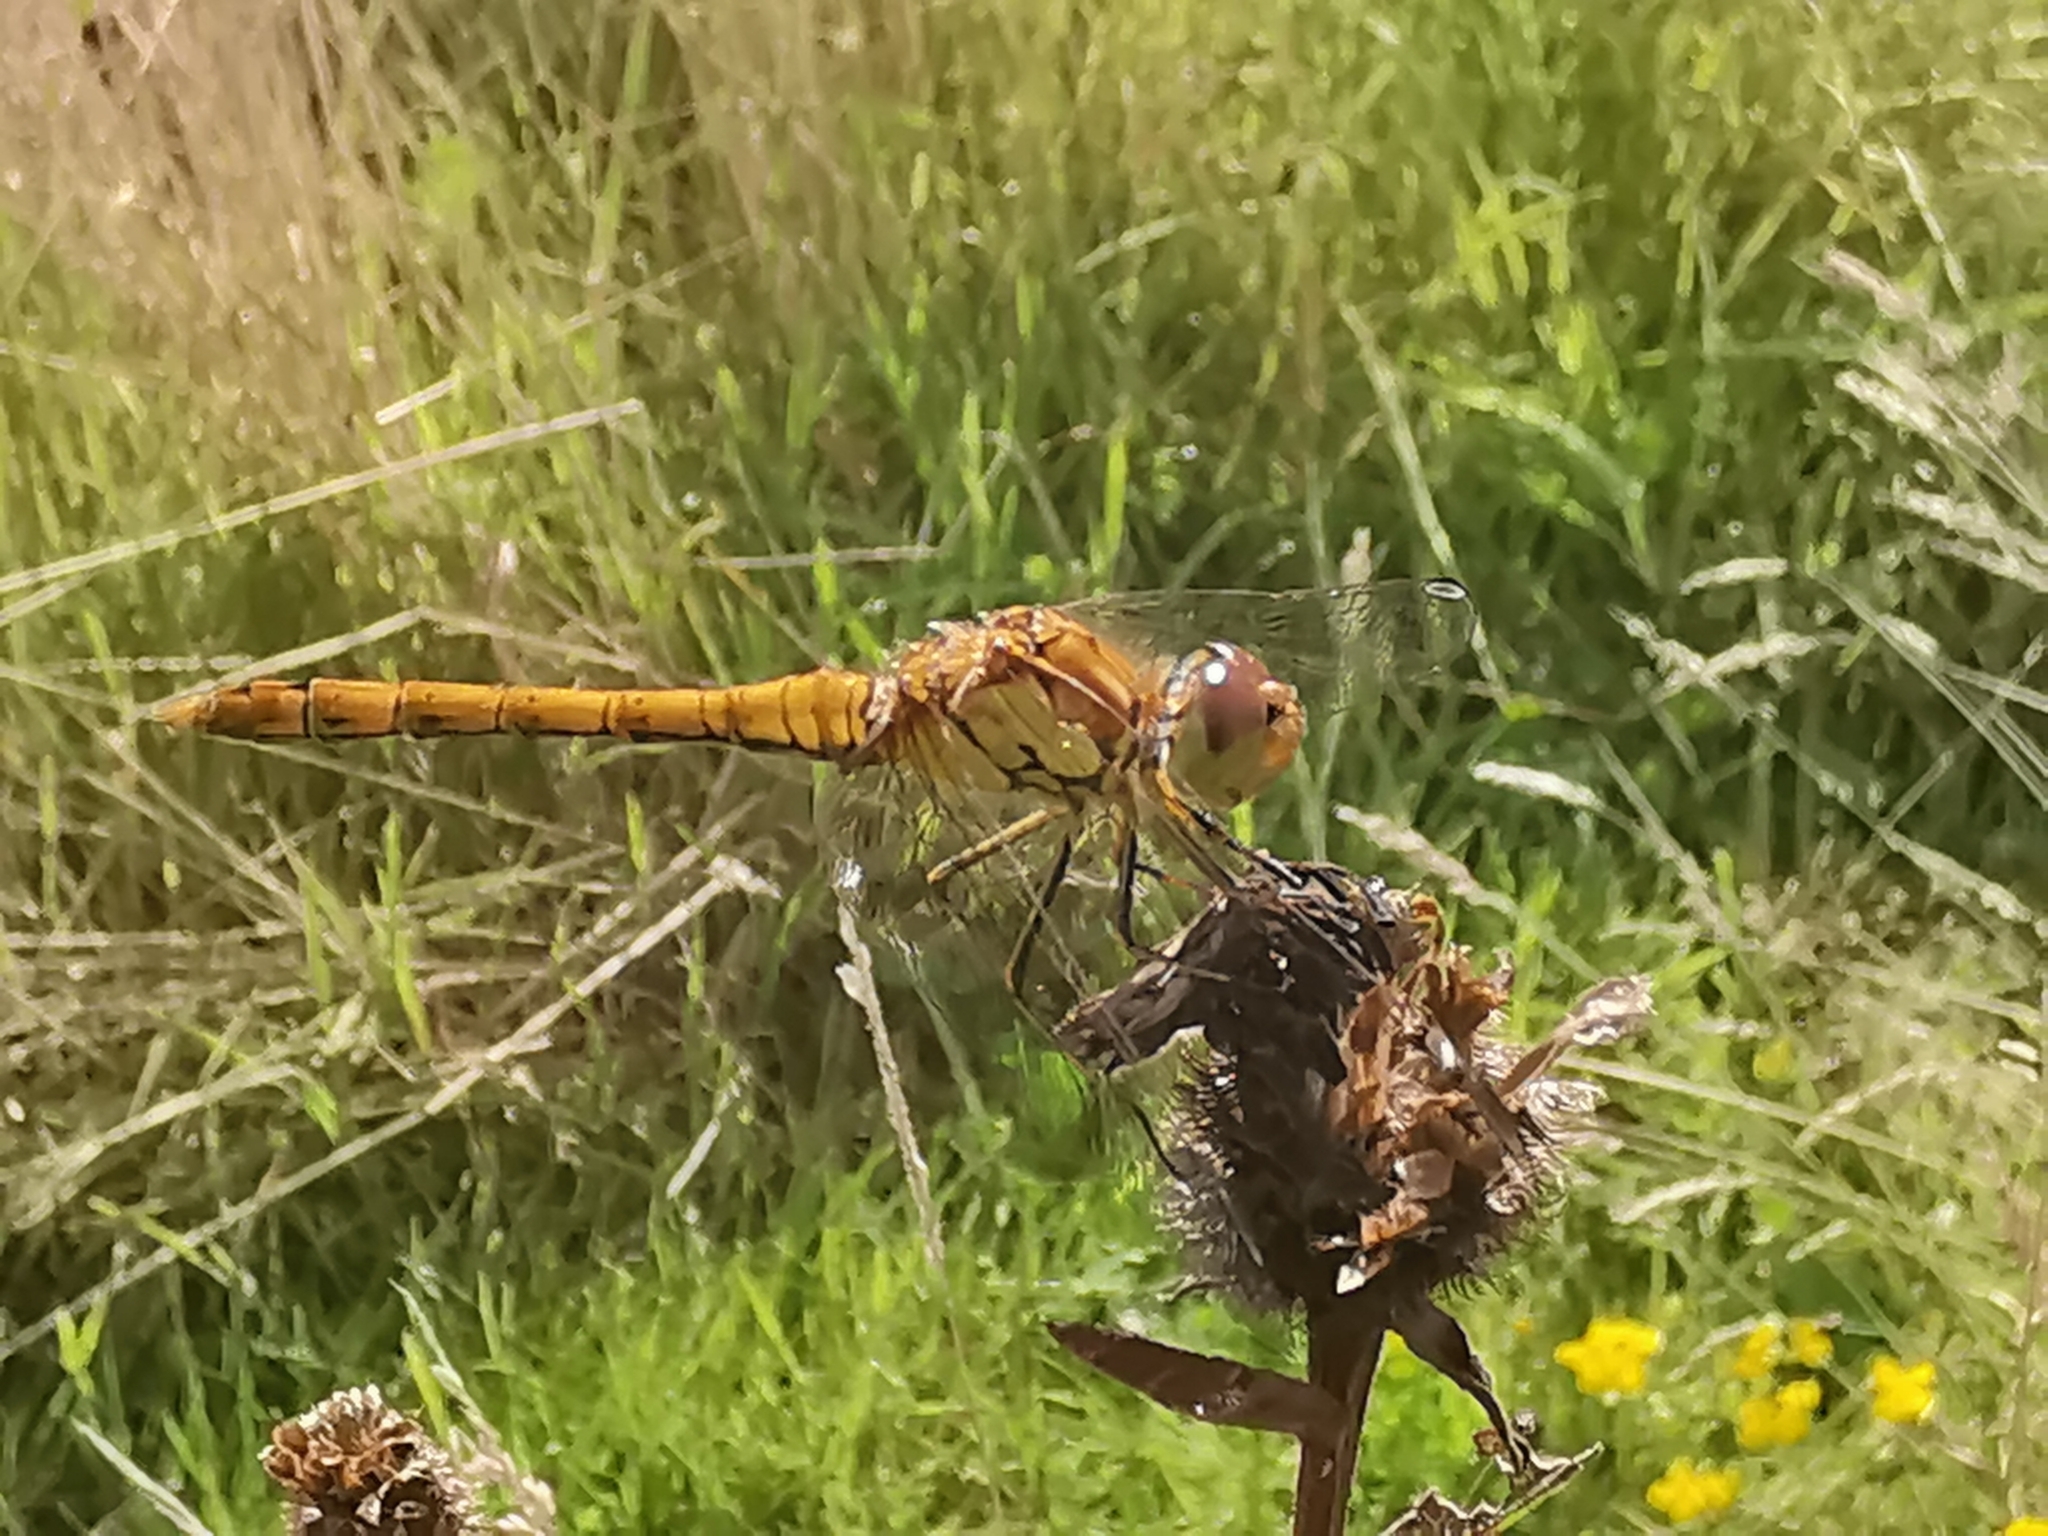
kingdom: Animalia
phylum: Arthropoda
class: Insecta
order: Odonata
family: Libellulidae
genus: Sympetrum
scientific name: Sympetrum striolatum
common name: Common darter
